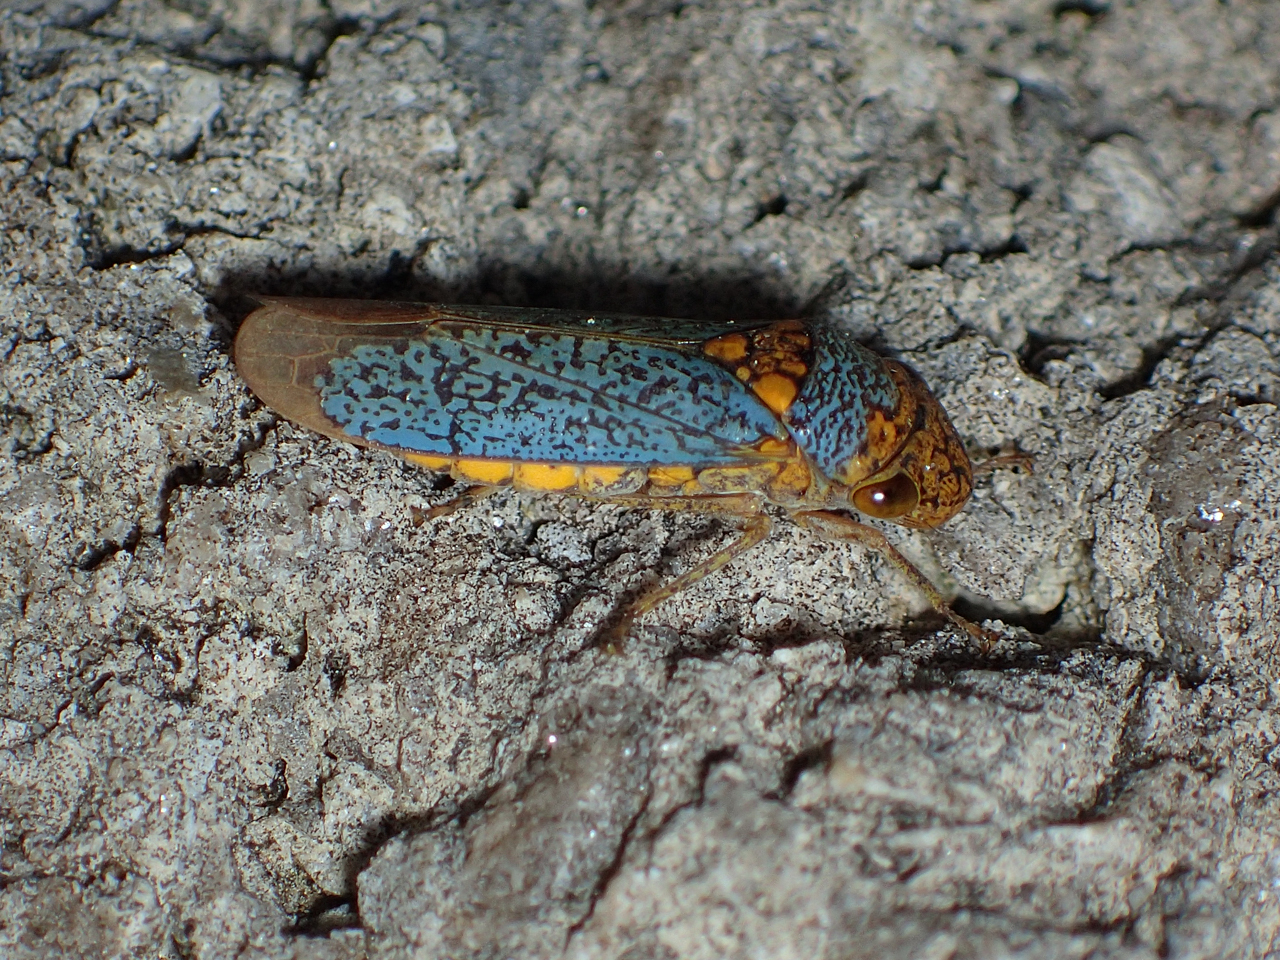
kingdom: Animalia
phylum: Arthropoda
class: Insecta
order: Hemiptera
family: Cicadellidae
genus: Oncometopia
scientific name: Oncometopia orbona
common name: Broad-headed sharpshooter
